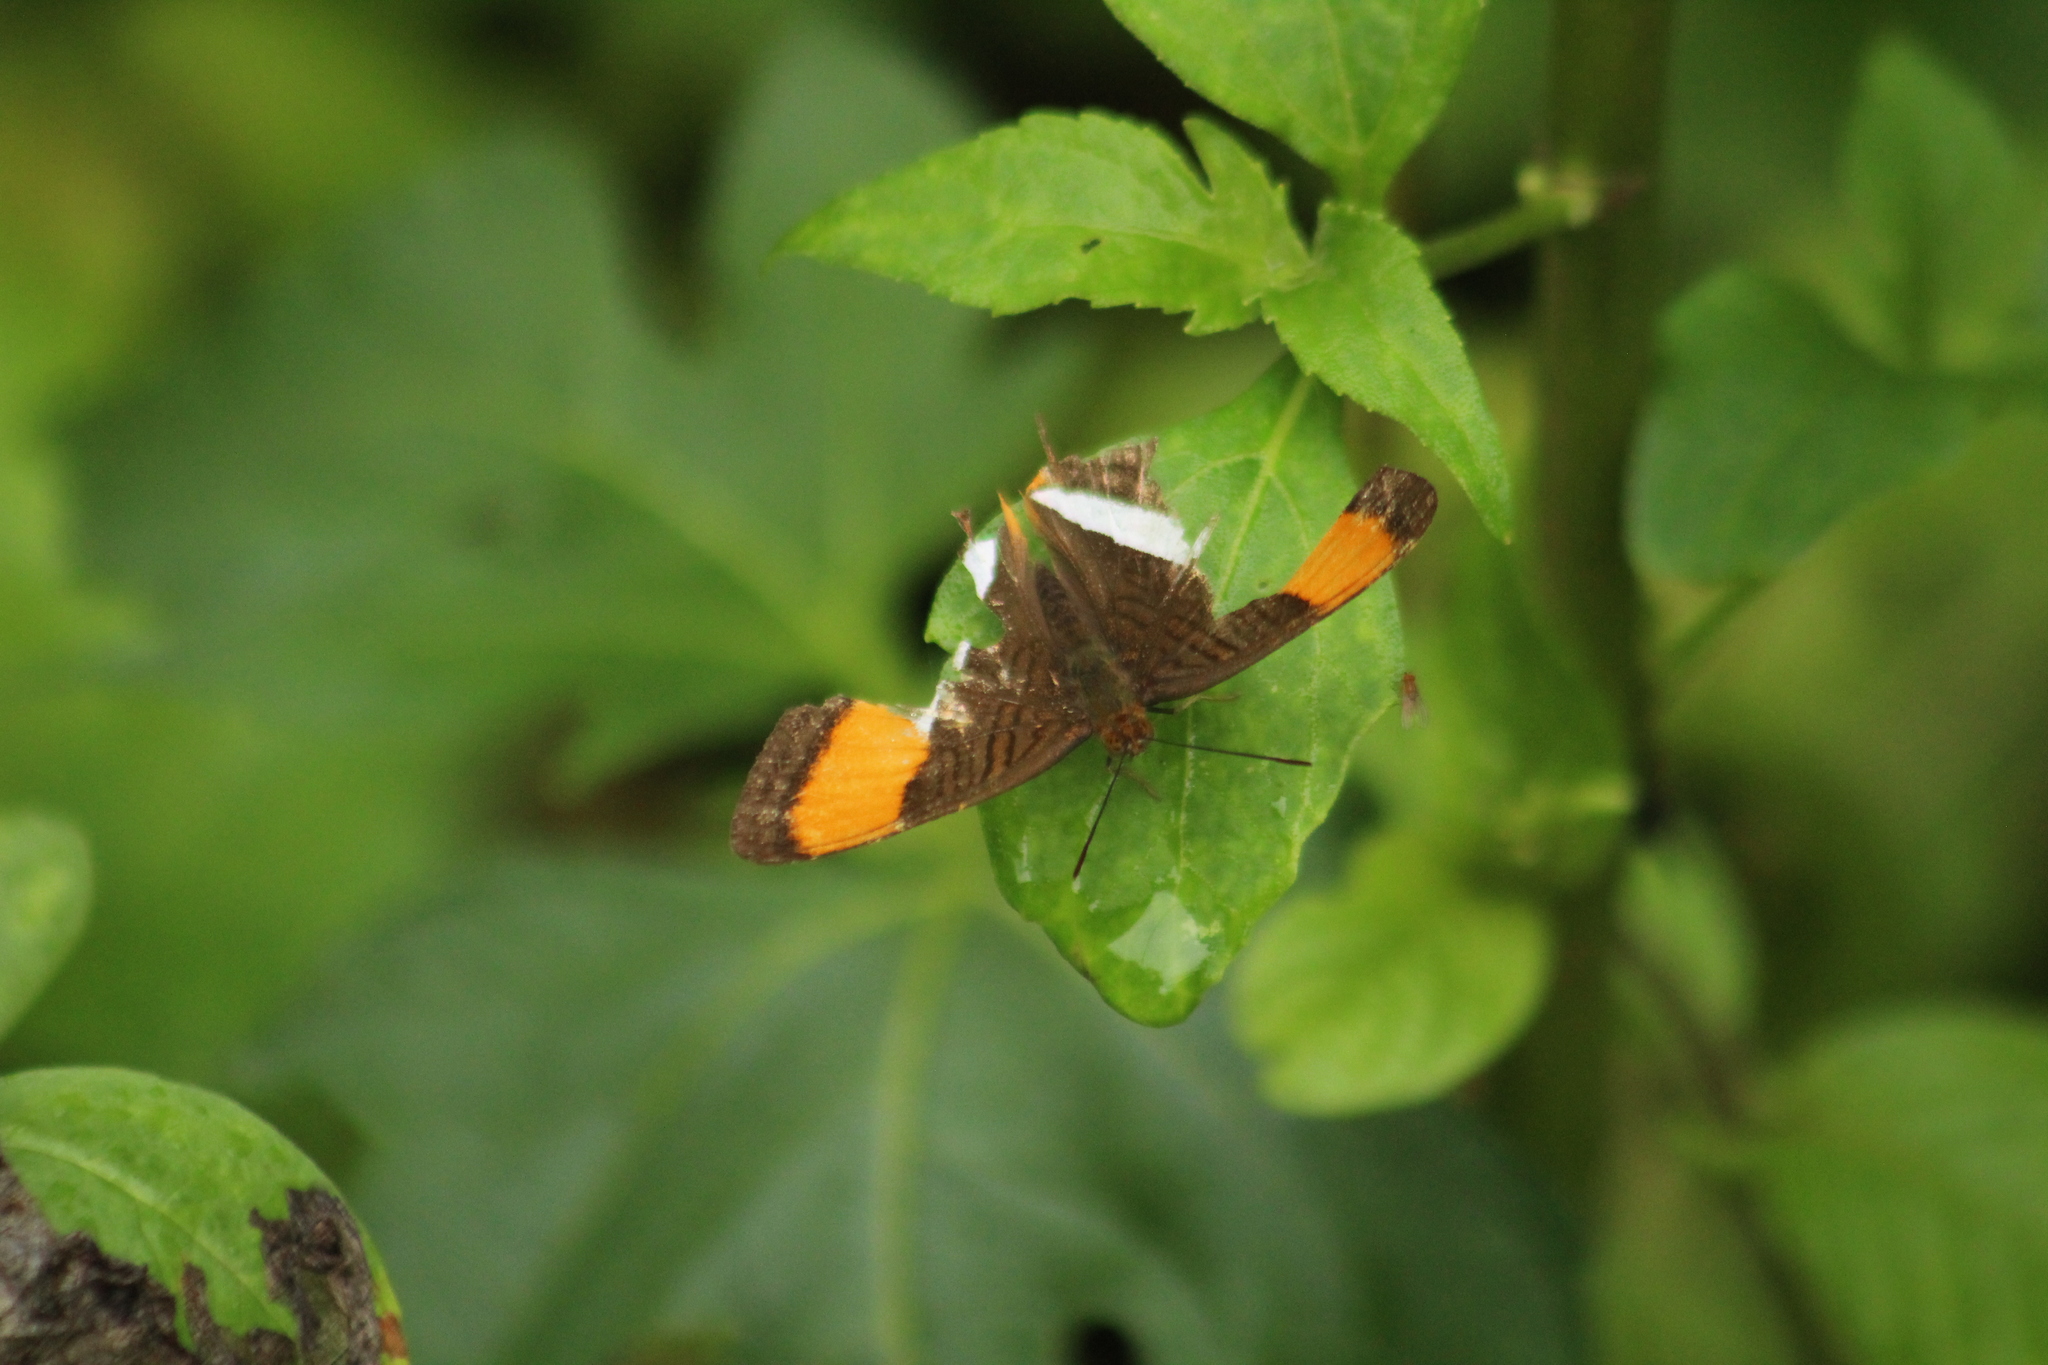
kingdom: Animalia
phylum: Arthropoda
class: Insecta
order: Lepidoptera
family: Nymphalidae
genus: Limenitis
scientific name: Limenitis cytherea
